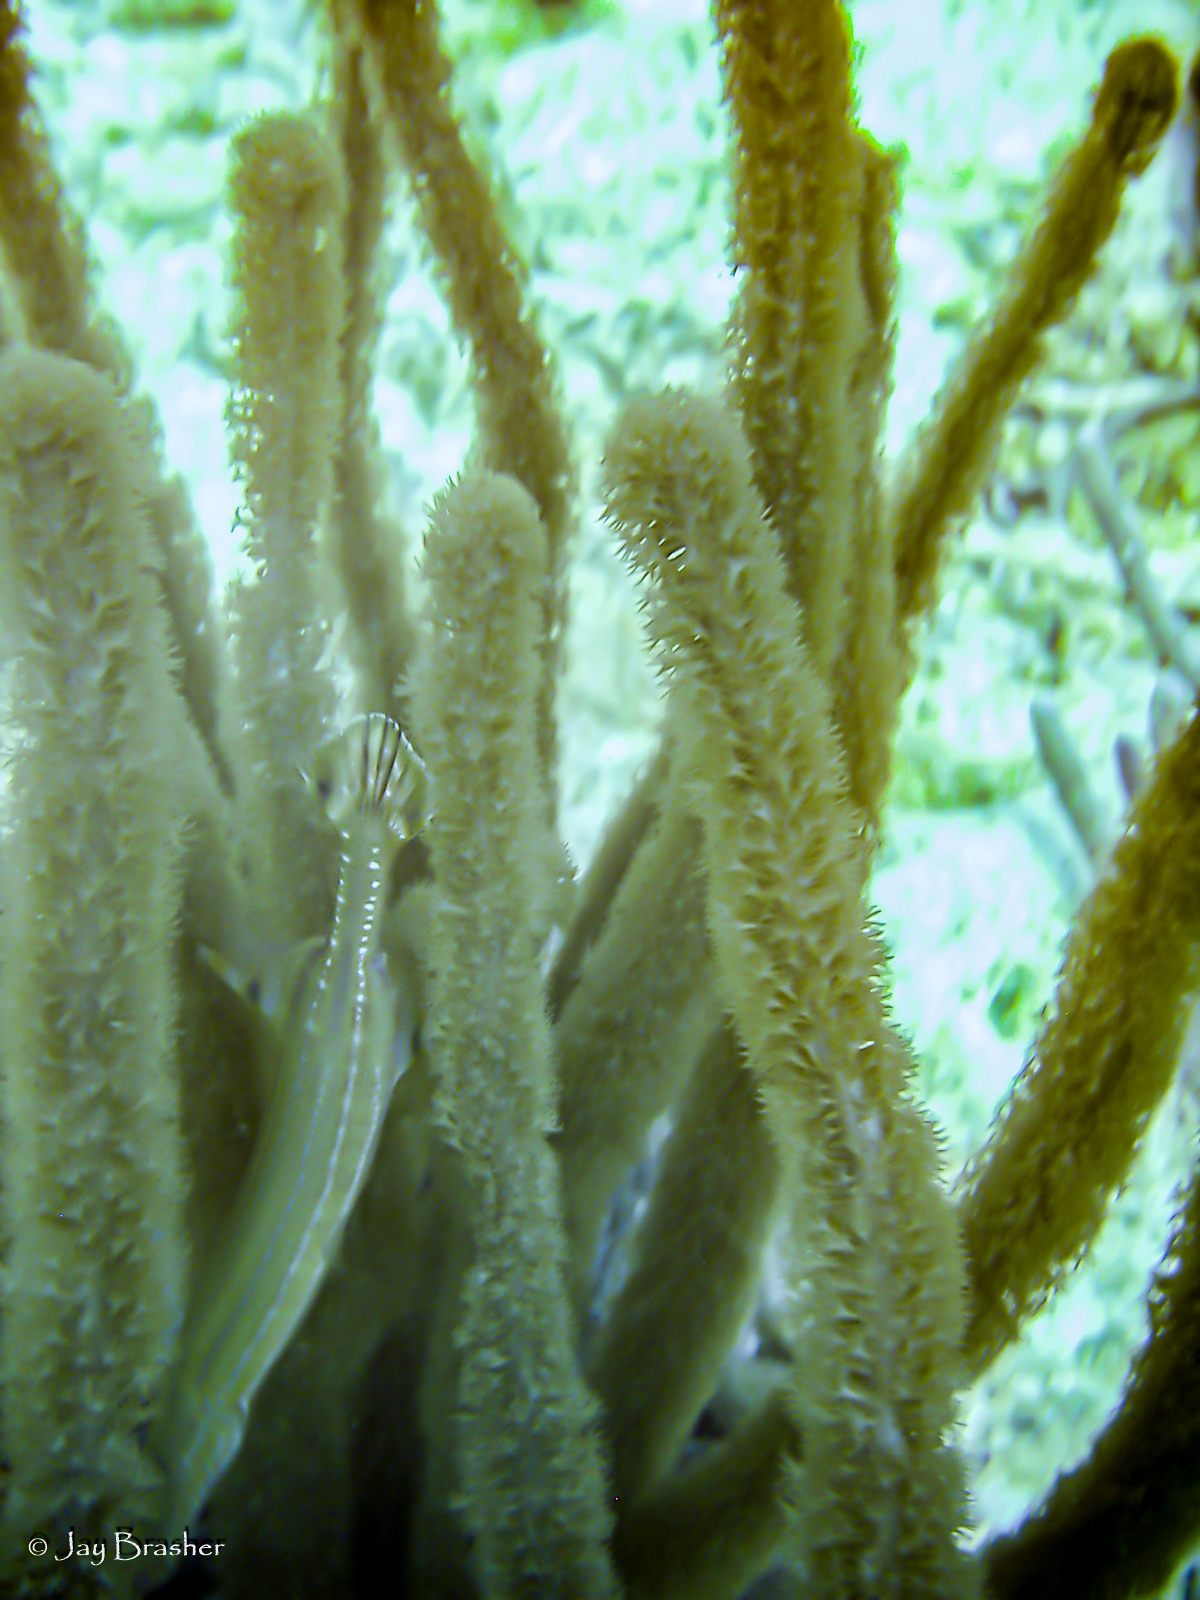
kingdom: Animalia
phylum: Chordata
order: Syngnathiformes
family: Aulostomidae
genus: Aulostomus
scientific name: Aulostomus maculatus
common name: West atlantic trumpetfish
